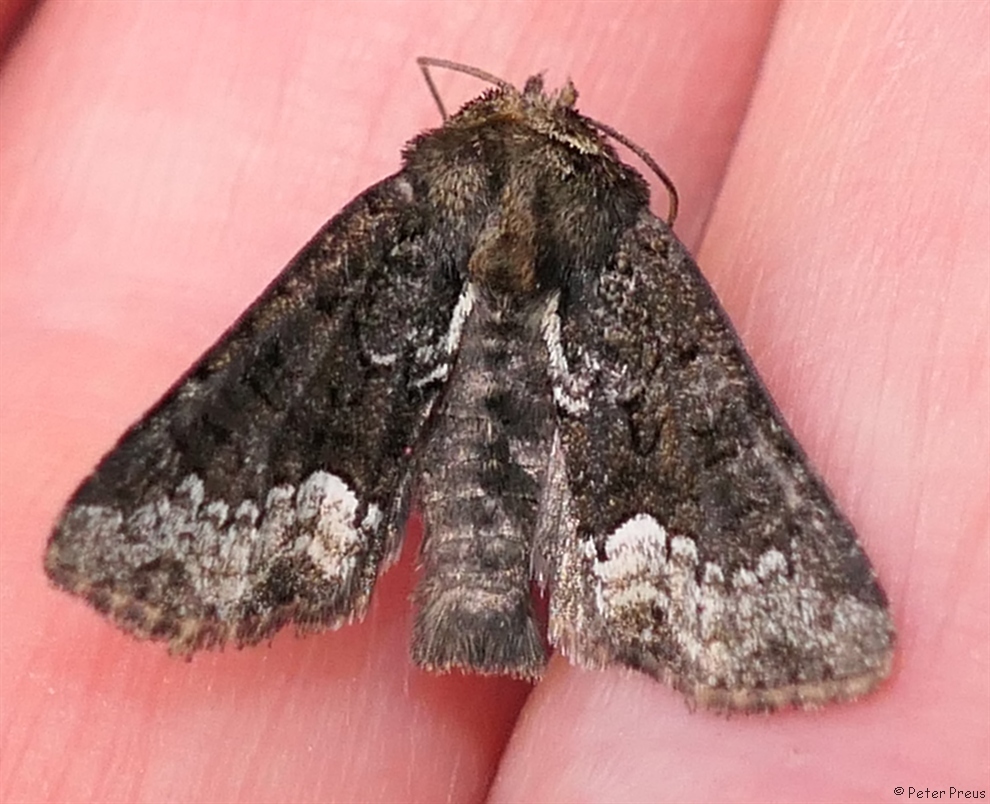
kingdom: Animalia
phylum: Arthropoda
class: Insecta
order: Lepidoptera
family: Noctuidae
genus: Oligia
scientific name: Oligia strigilis
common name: Marbled minor
